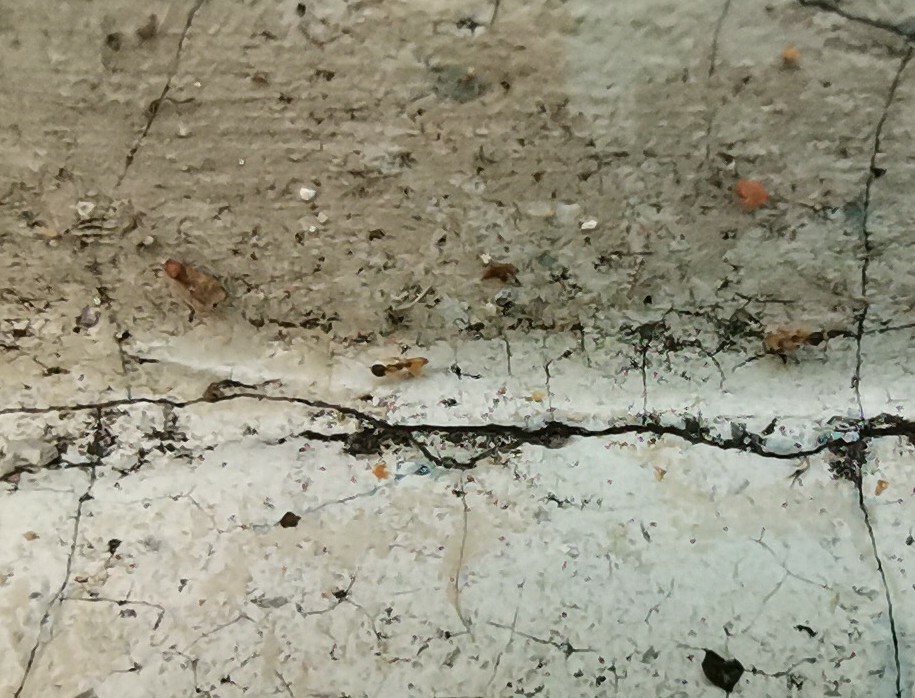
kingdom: Animalia
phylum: Arthropoda
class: Insecta
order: Hymenoptera
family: Formicidae
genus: Tapinoma
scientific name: Tapinoma melanocephalum
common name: Ghost ant
